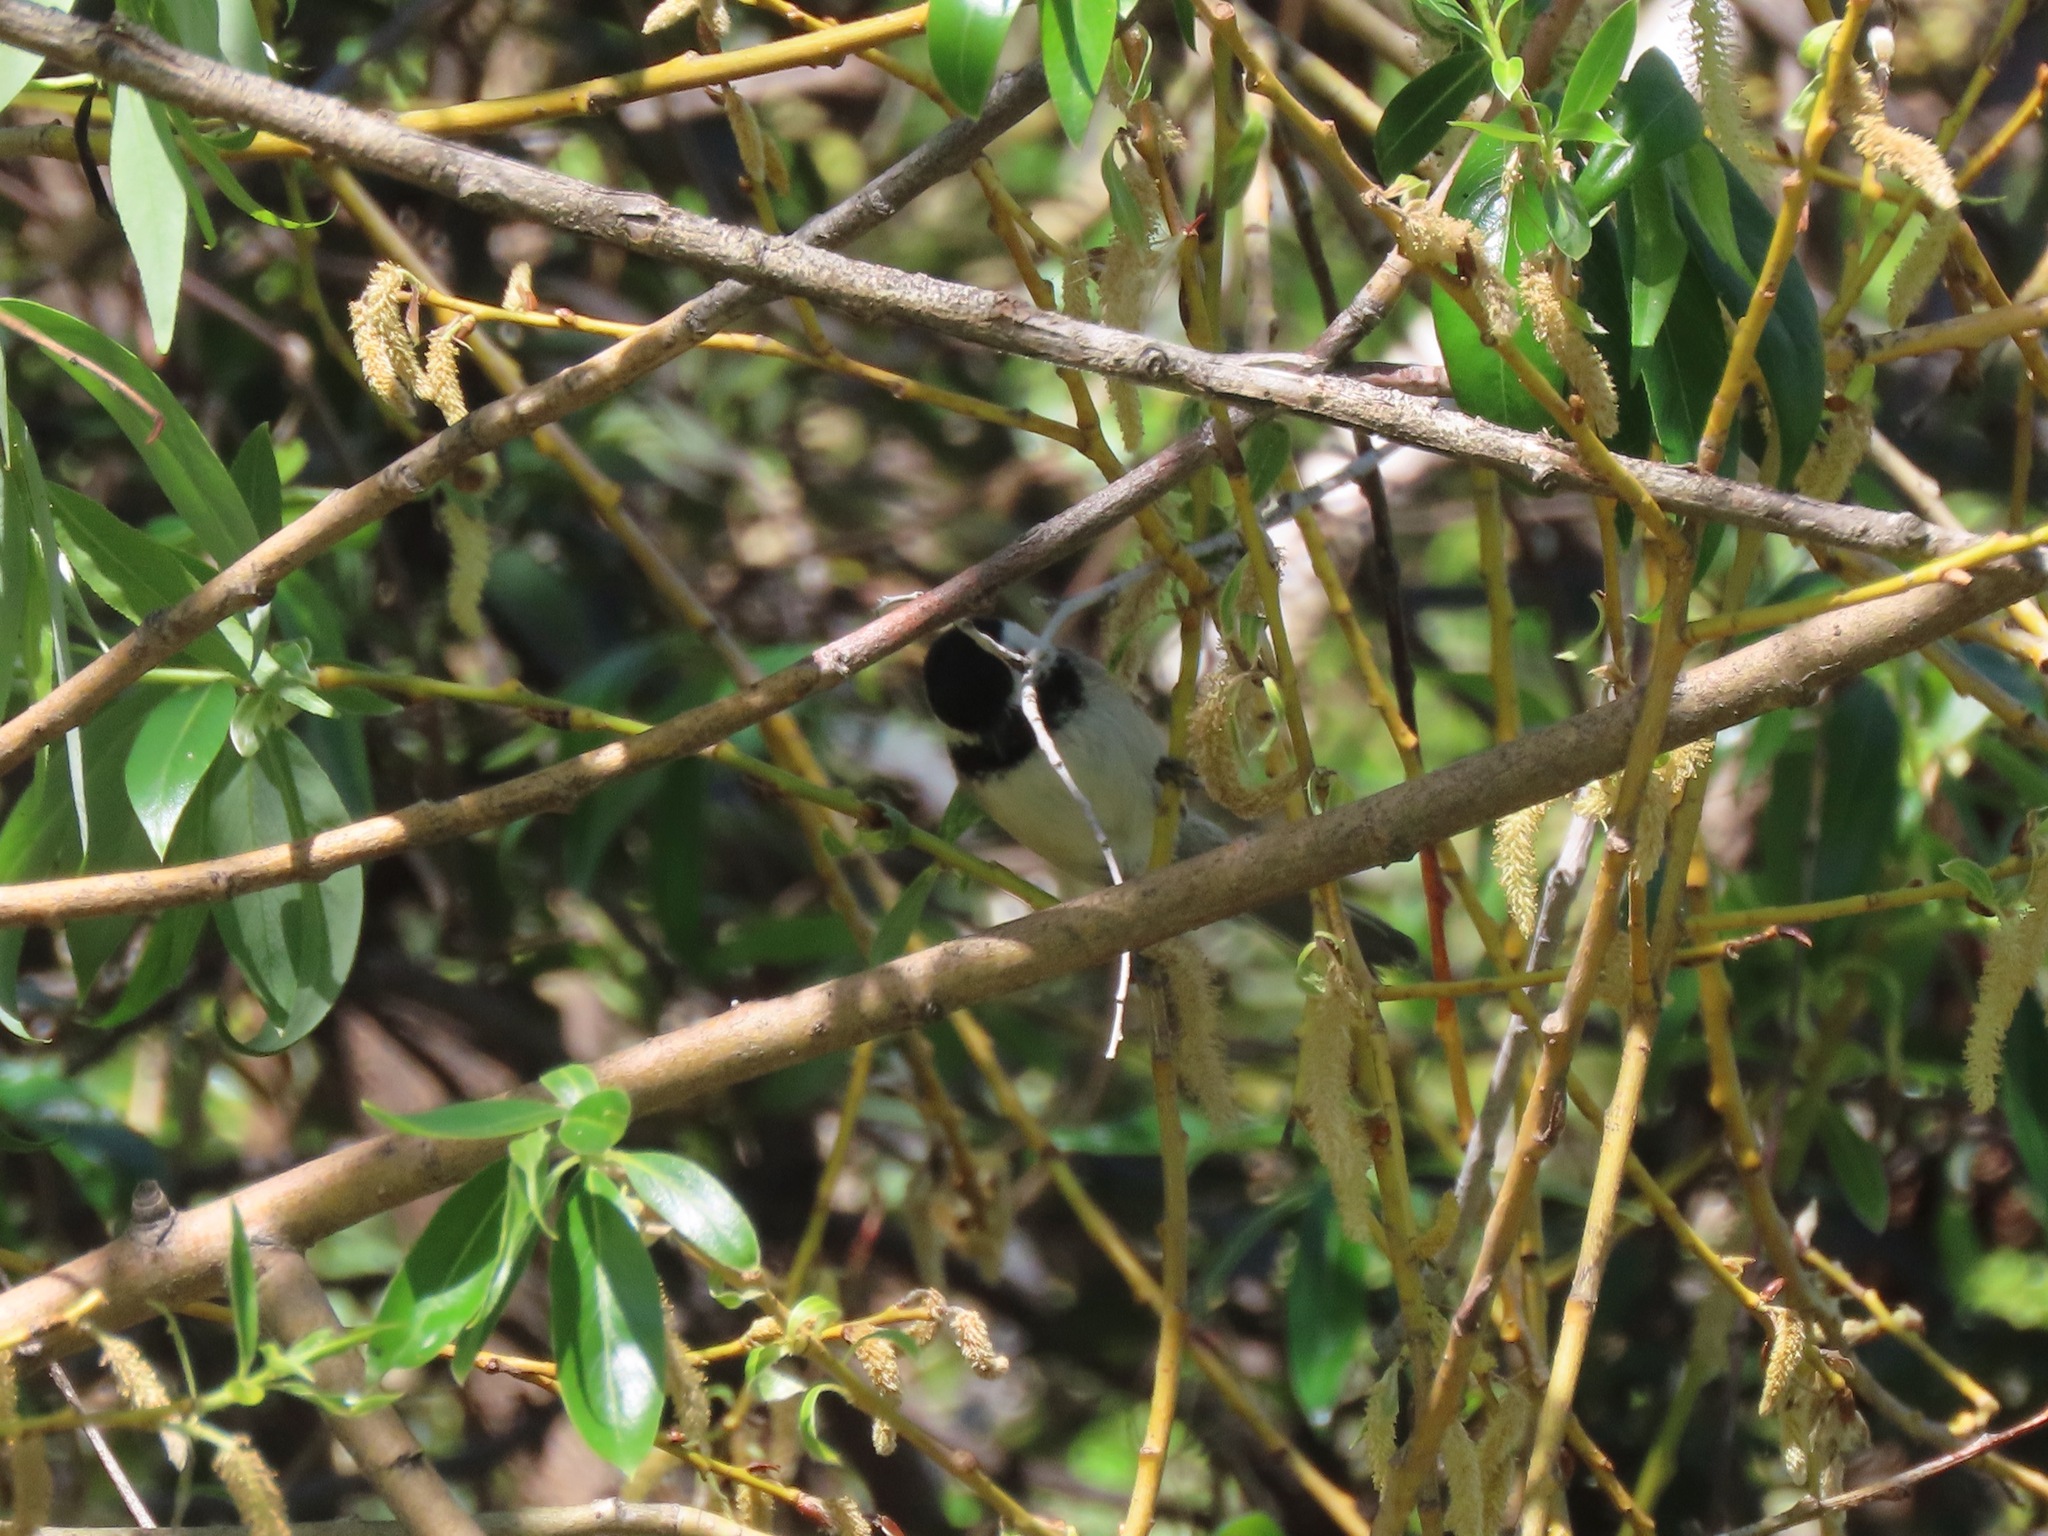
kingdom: Animalia
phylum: Chordata
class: Aves
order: Passeriformes
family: Paridae
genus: Poecile
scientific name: Poecile atricapillus
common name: Black-capped chickadee
